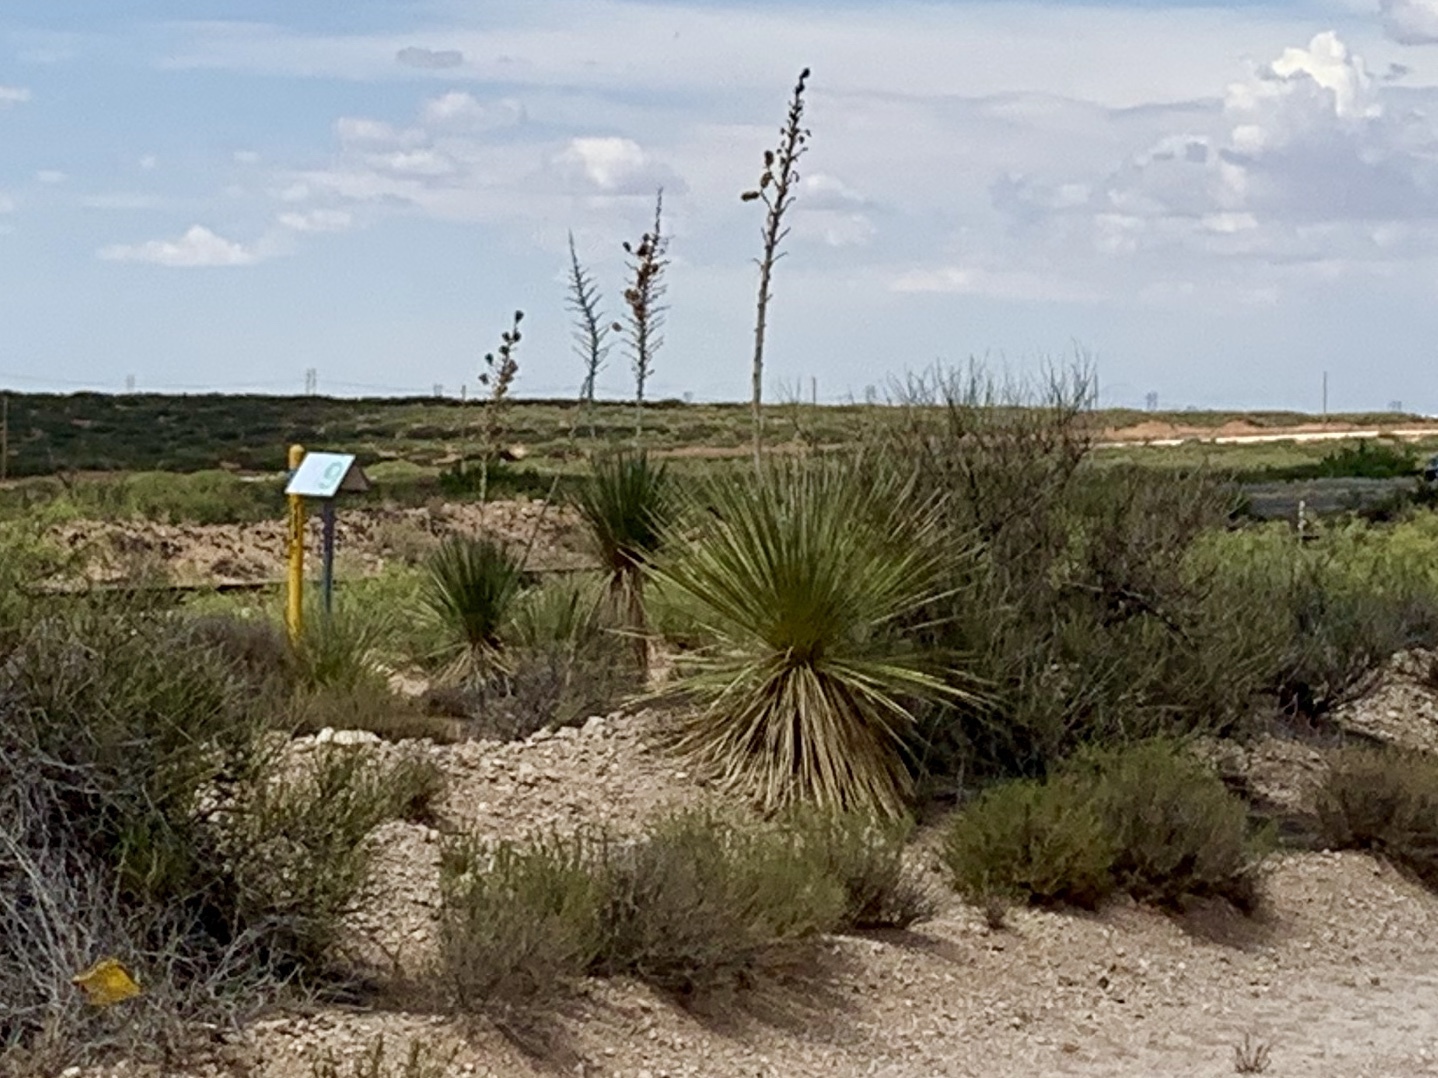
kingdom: Plantae
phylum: Tracheophyta
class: Liliopsida
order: Asparagales
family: Asparagaceae
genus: Yucca
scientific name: Yucca elata
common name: Palmella
